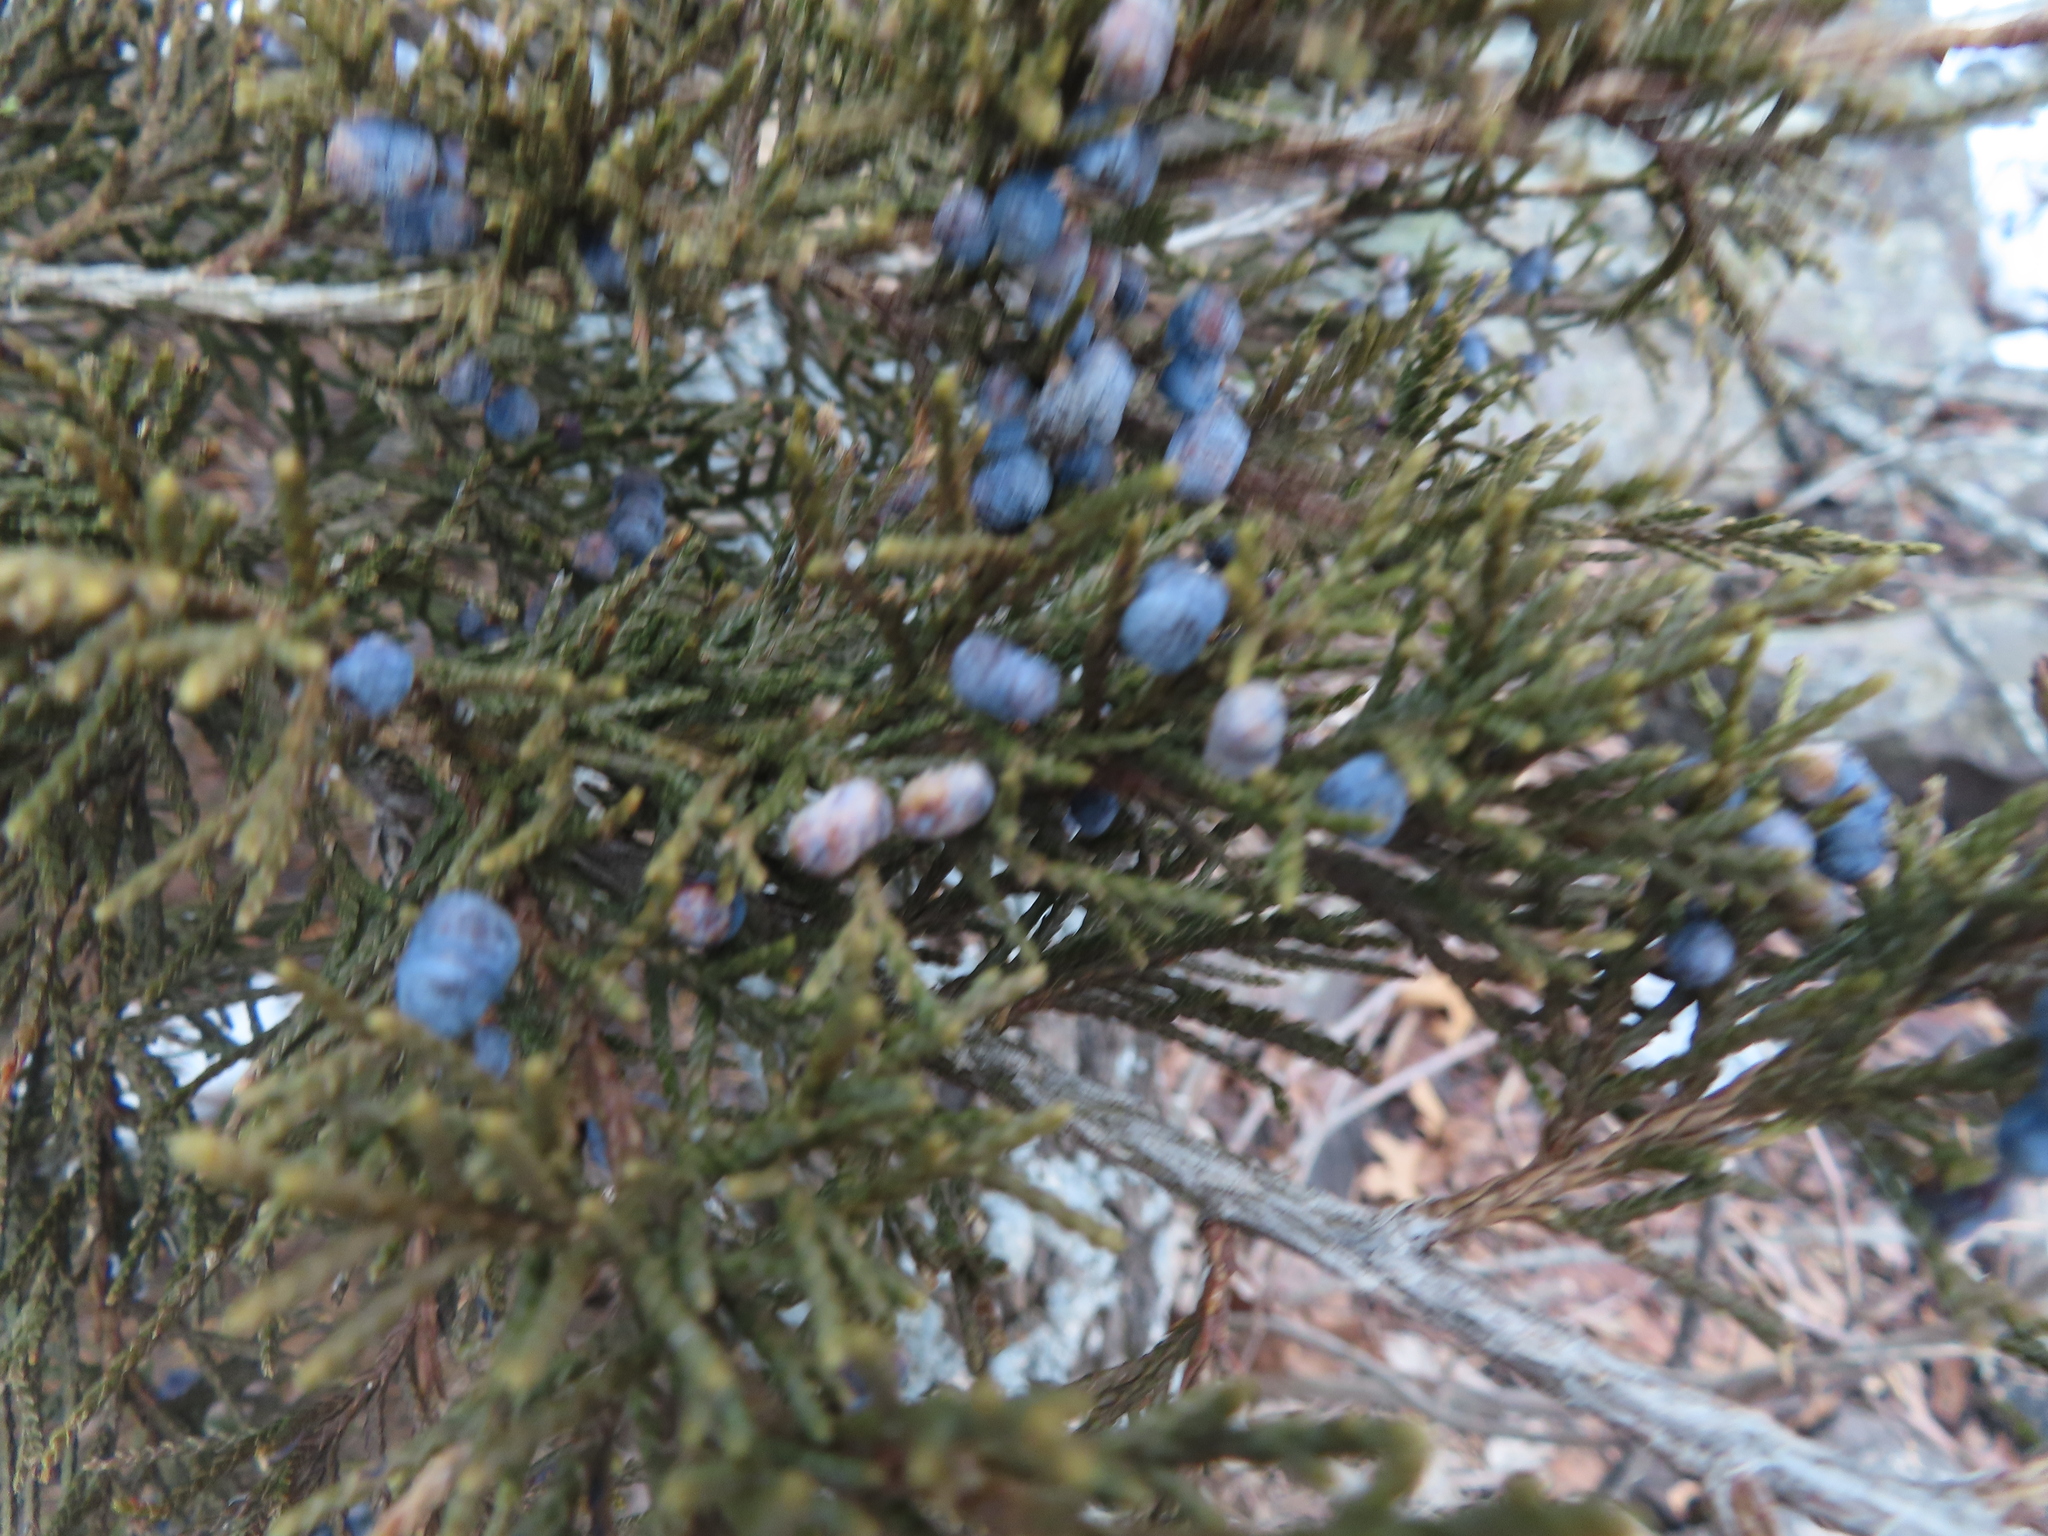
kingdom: Plantae
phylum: Tracheophyta
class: Pinopsida
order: Pinales
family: Cupressaceae
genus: Juniperus
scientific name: Juniperus virginiana
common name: Red juniper
